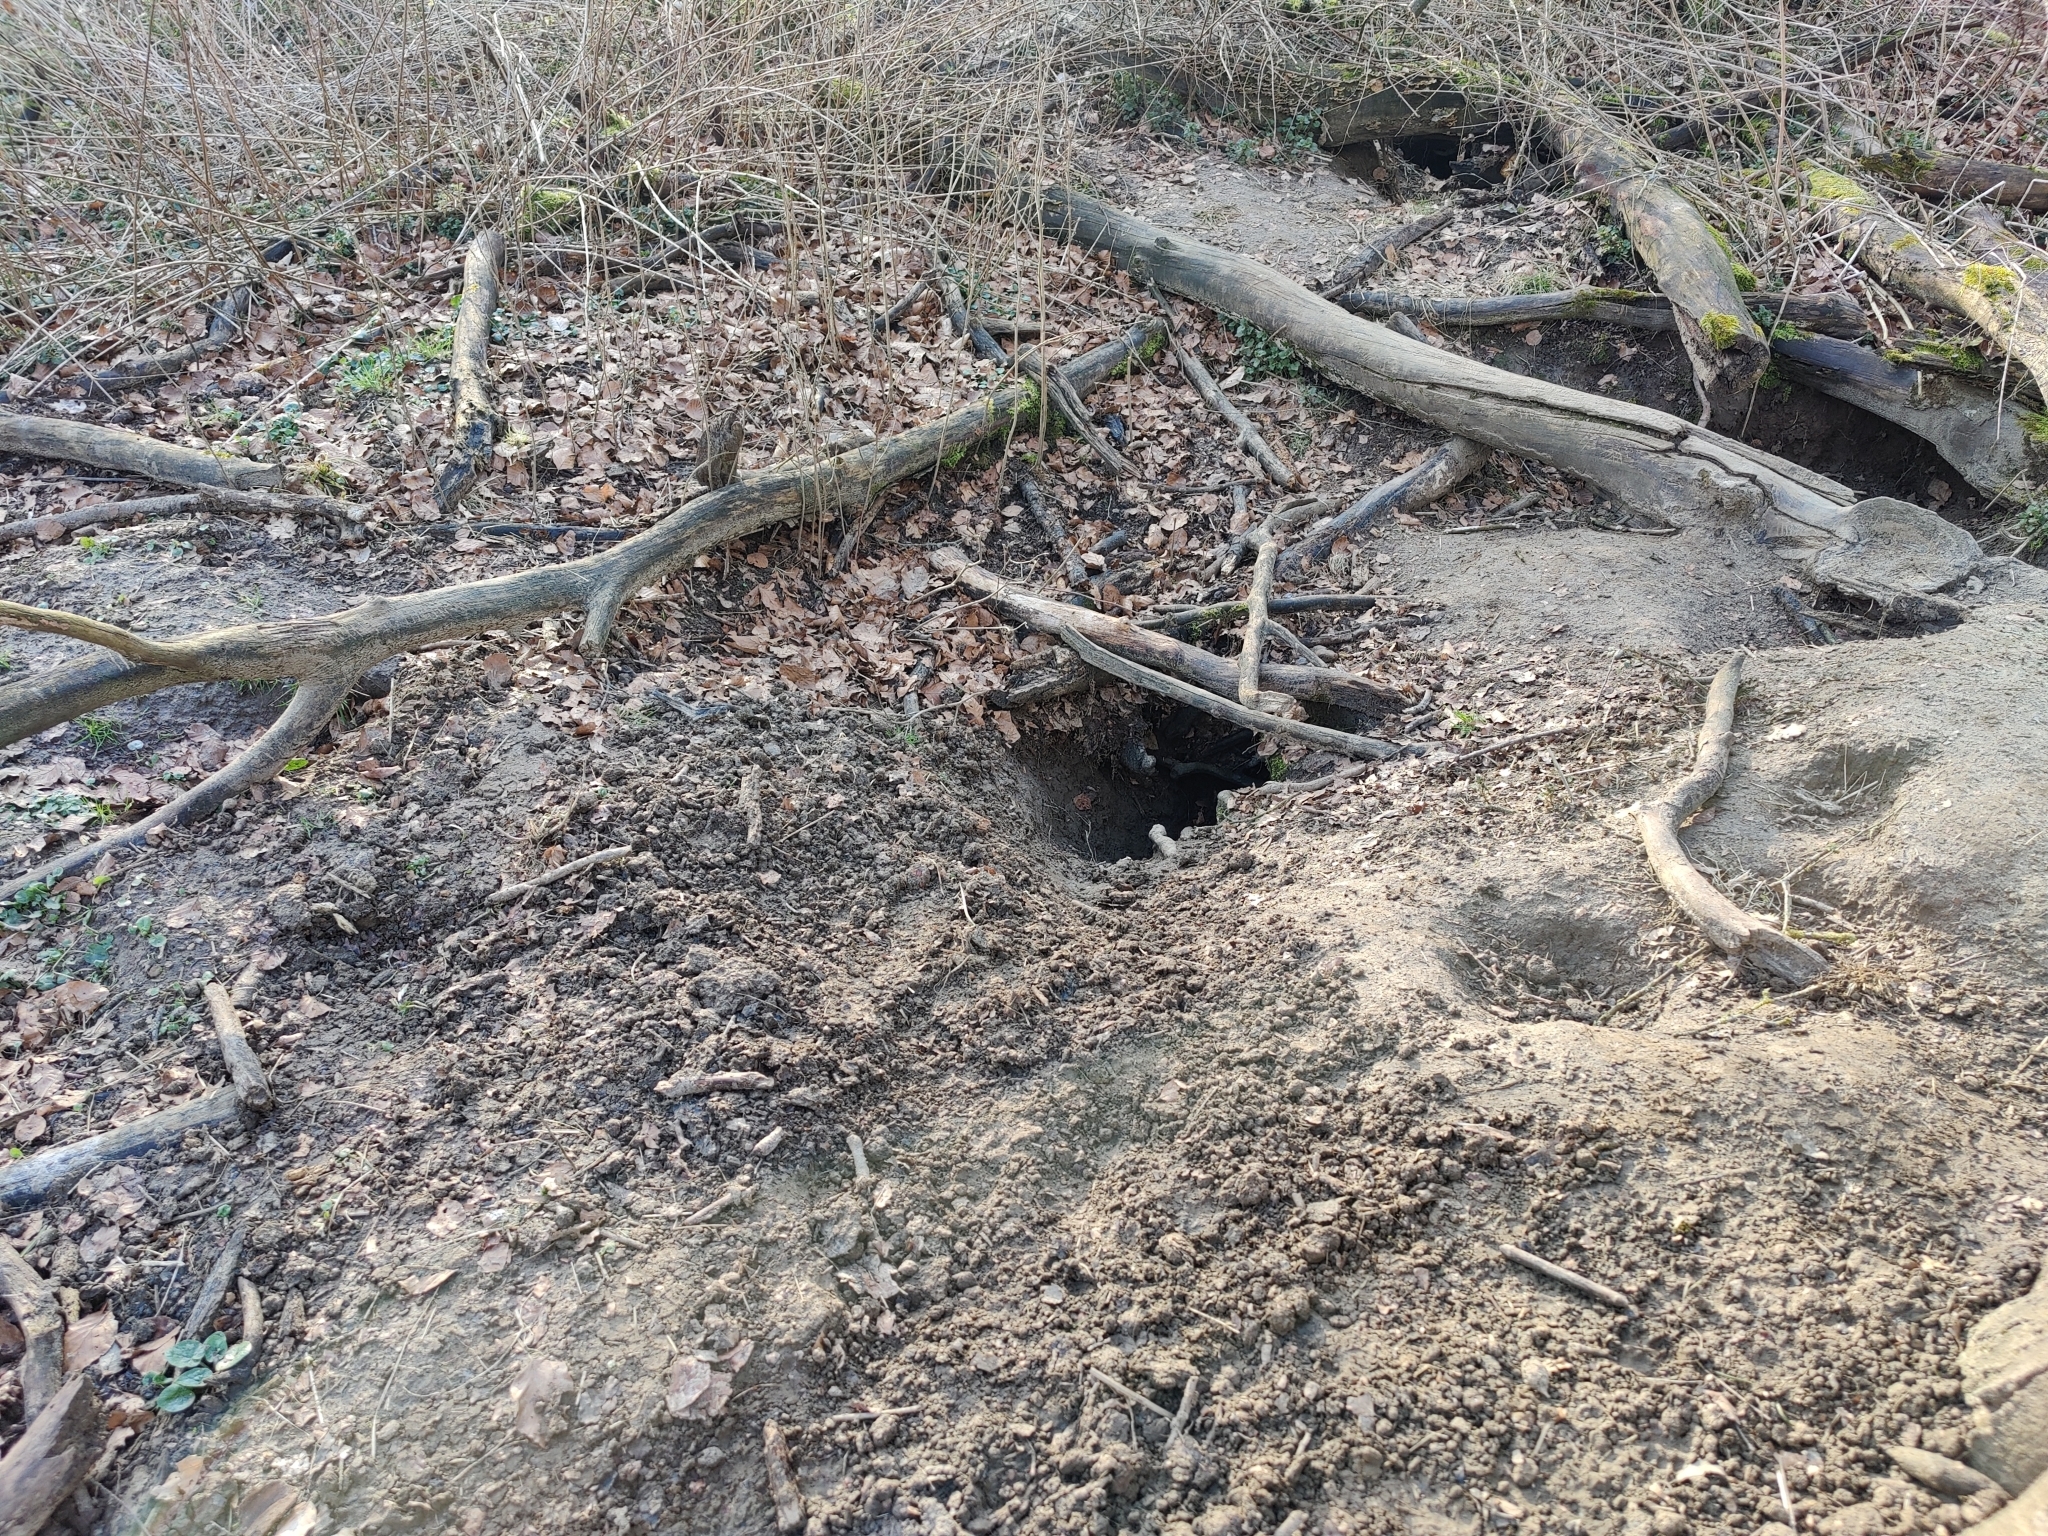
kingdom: Animalia
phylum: Chordata
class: Mammalia
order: Carnivora
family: Mustelidae
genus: Meles
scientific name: Meles meles
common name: Eurasian badger
